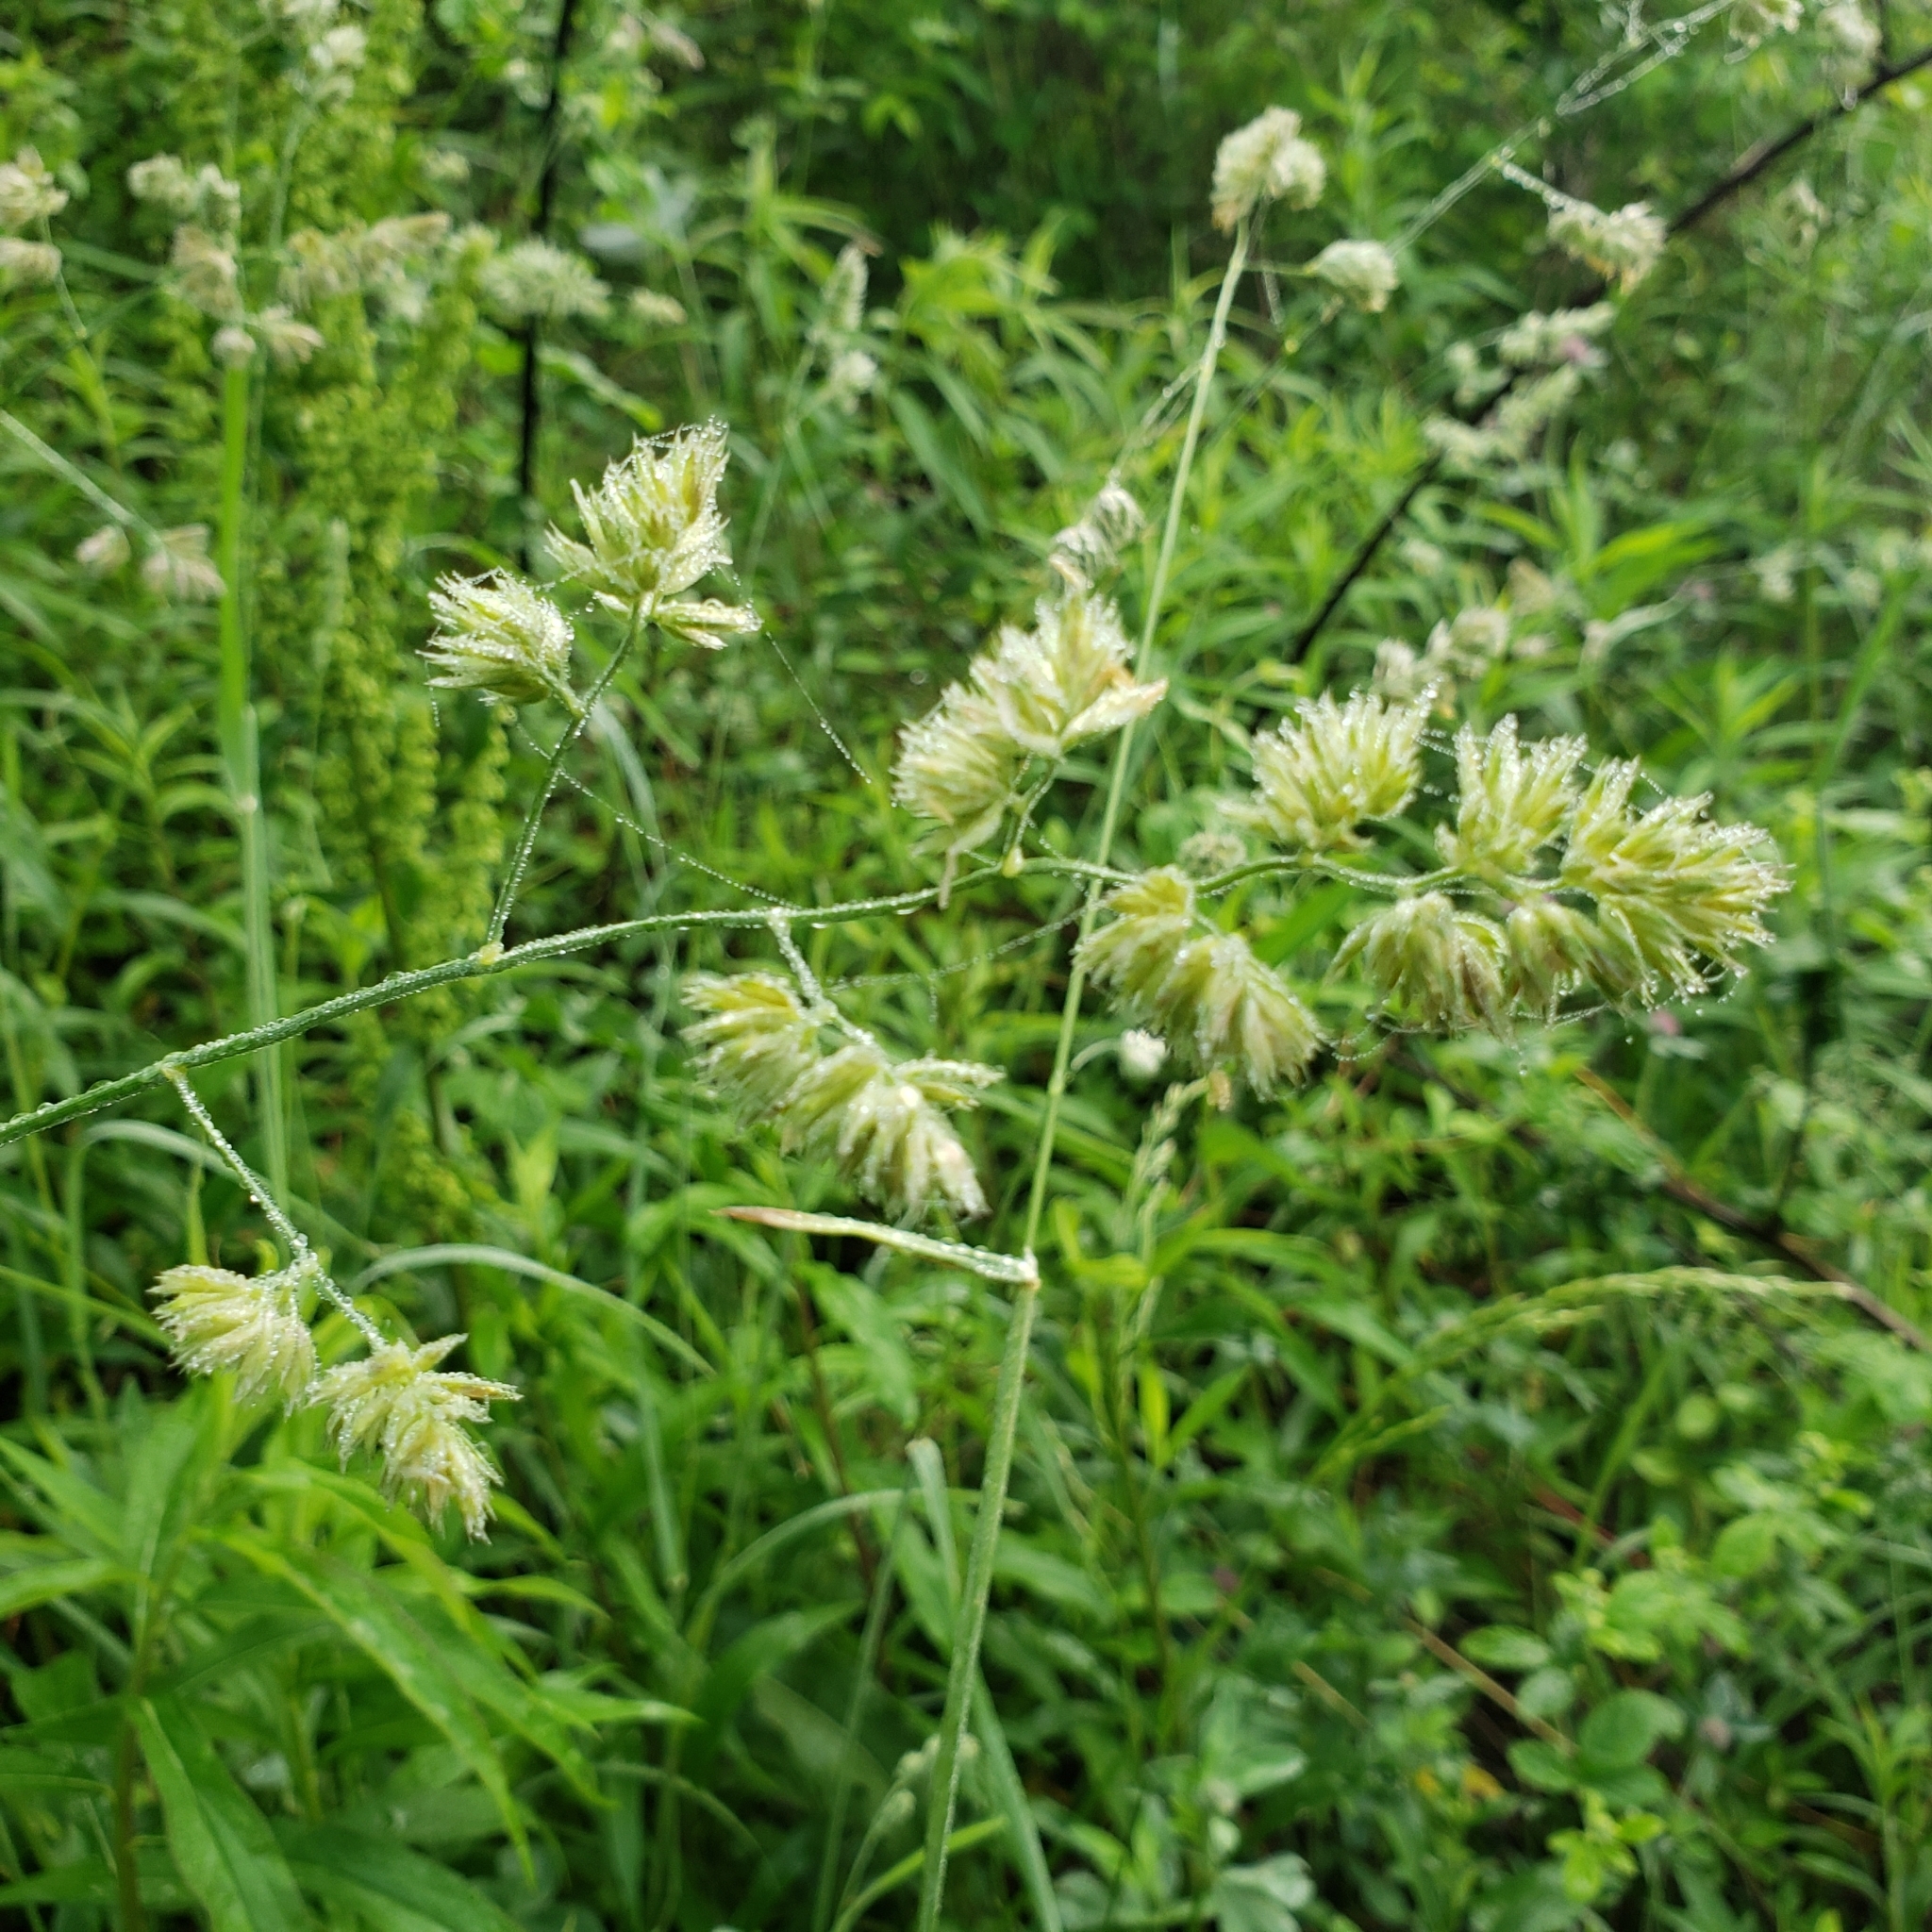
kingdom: Plantae
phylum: Tracheophyta
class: Liliopsida
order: Poales
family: Poaceae
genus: Dactylis
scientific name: Dactylis glomerata
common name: Orchardgrass
